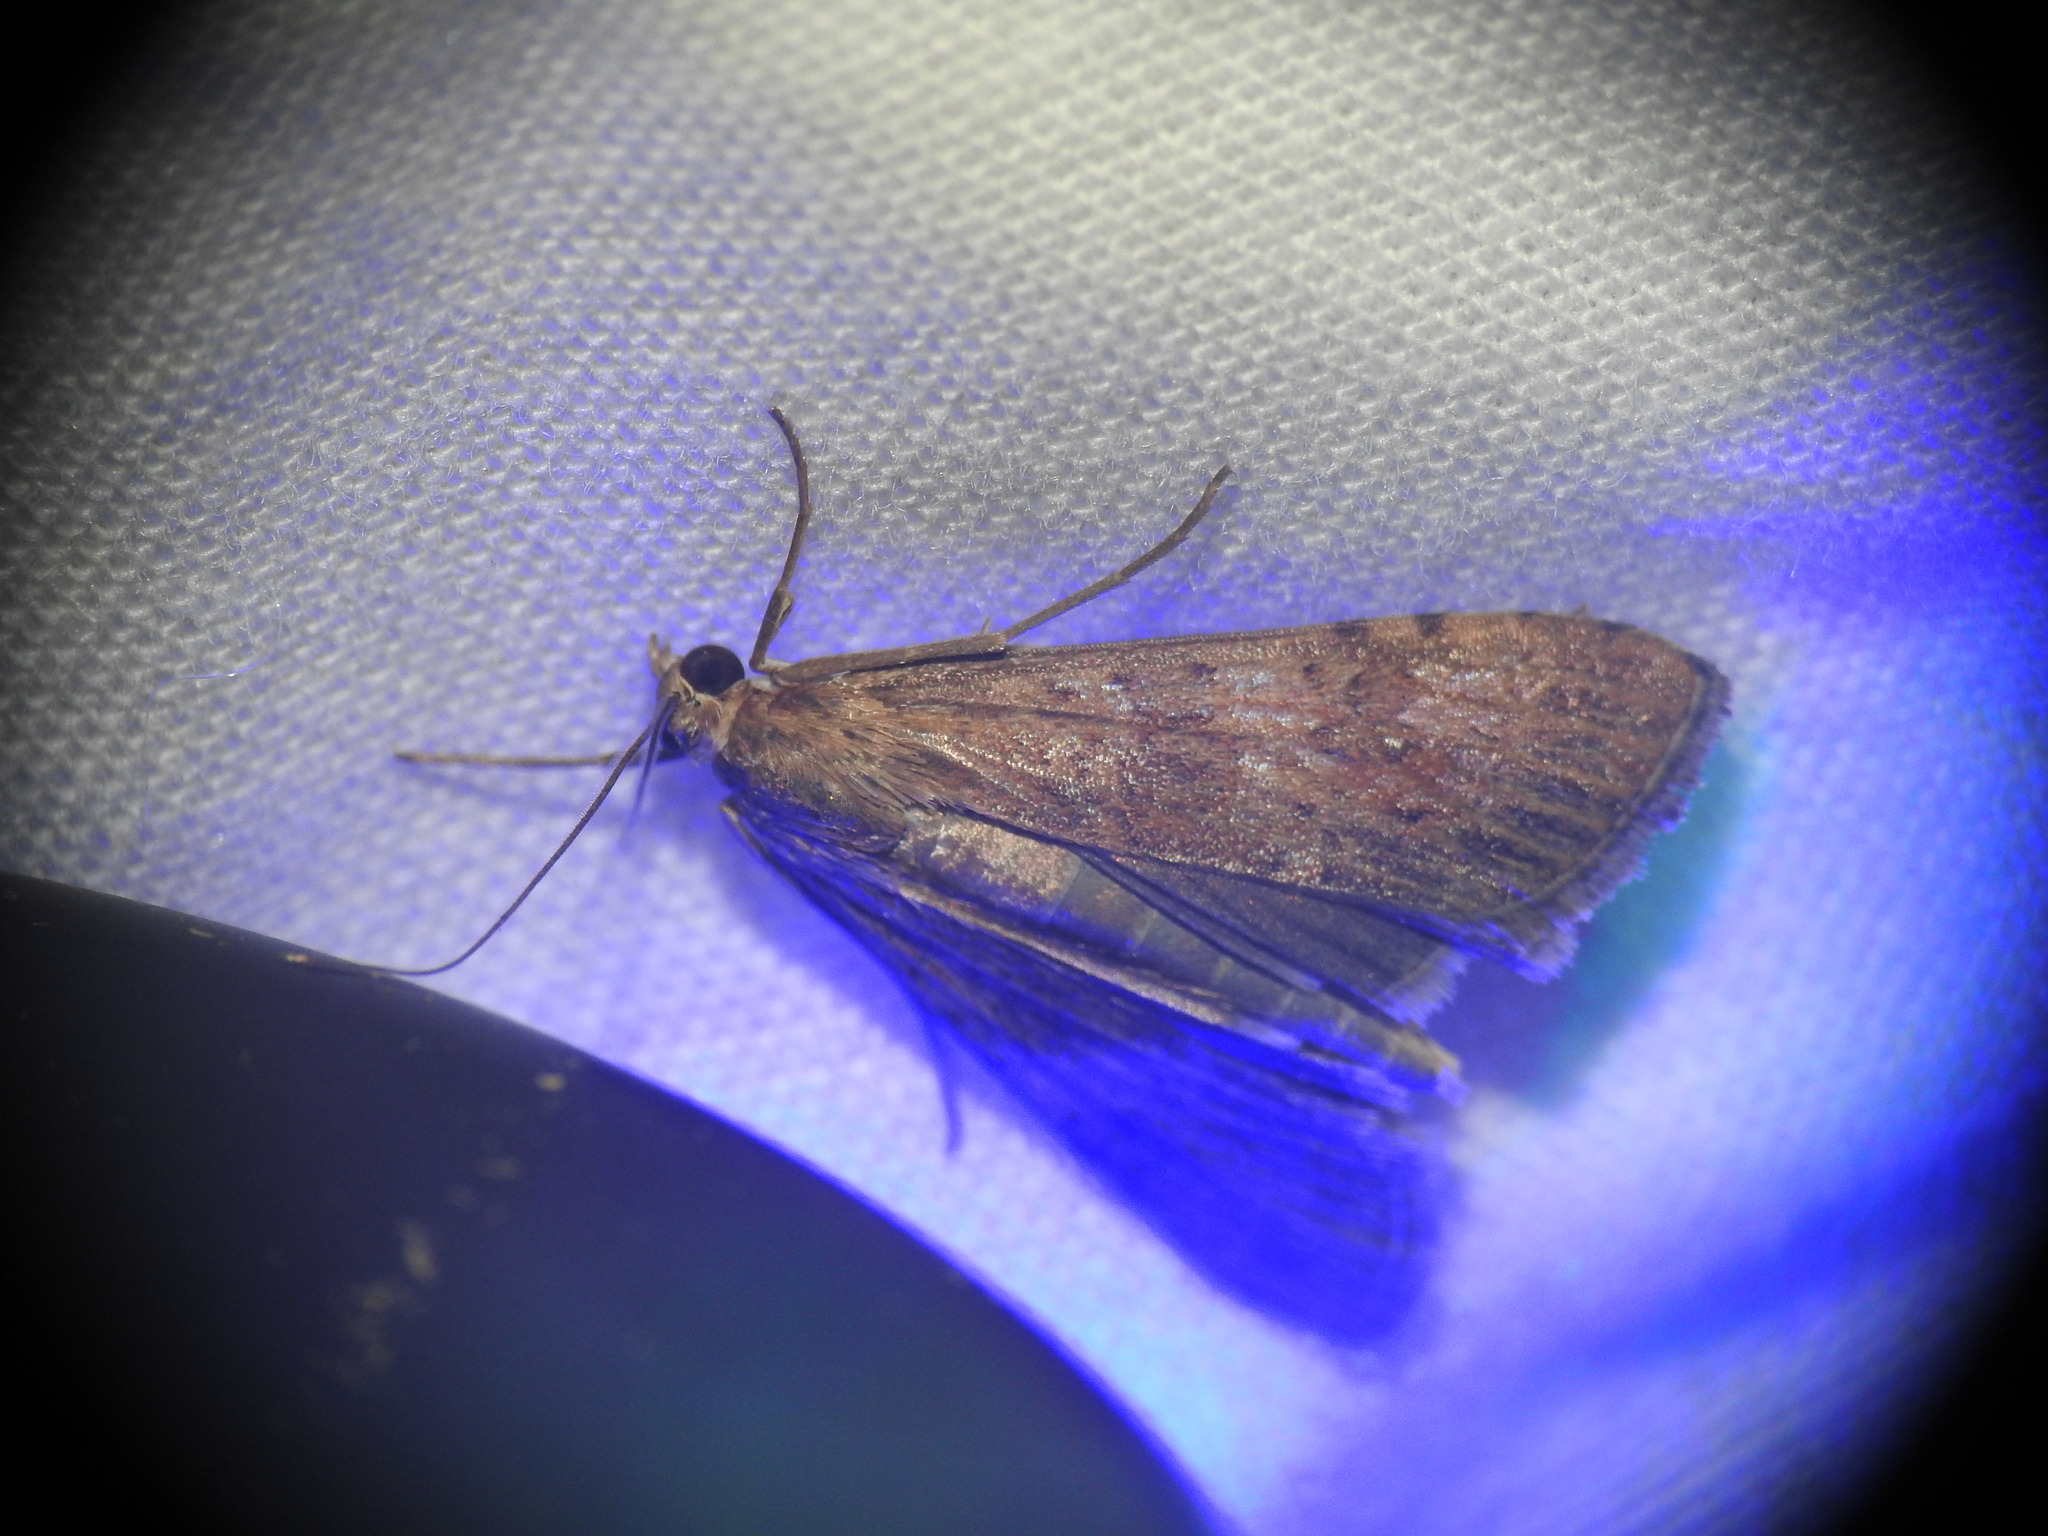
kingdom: Animalia
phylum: Arthropoda
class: Insecta
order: Lepidoptera
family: Crambidae
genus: Nomophila
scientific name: Nomophila noctuella
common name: Rush veneer
